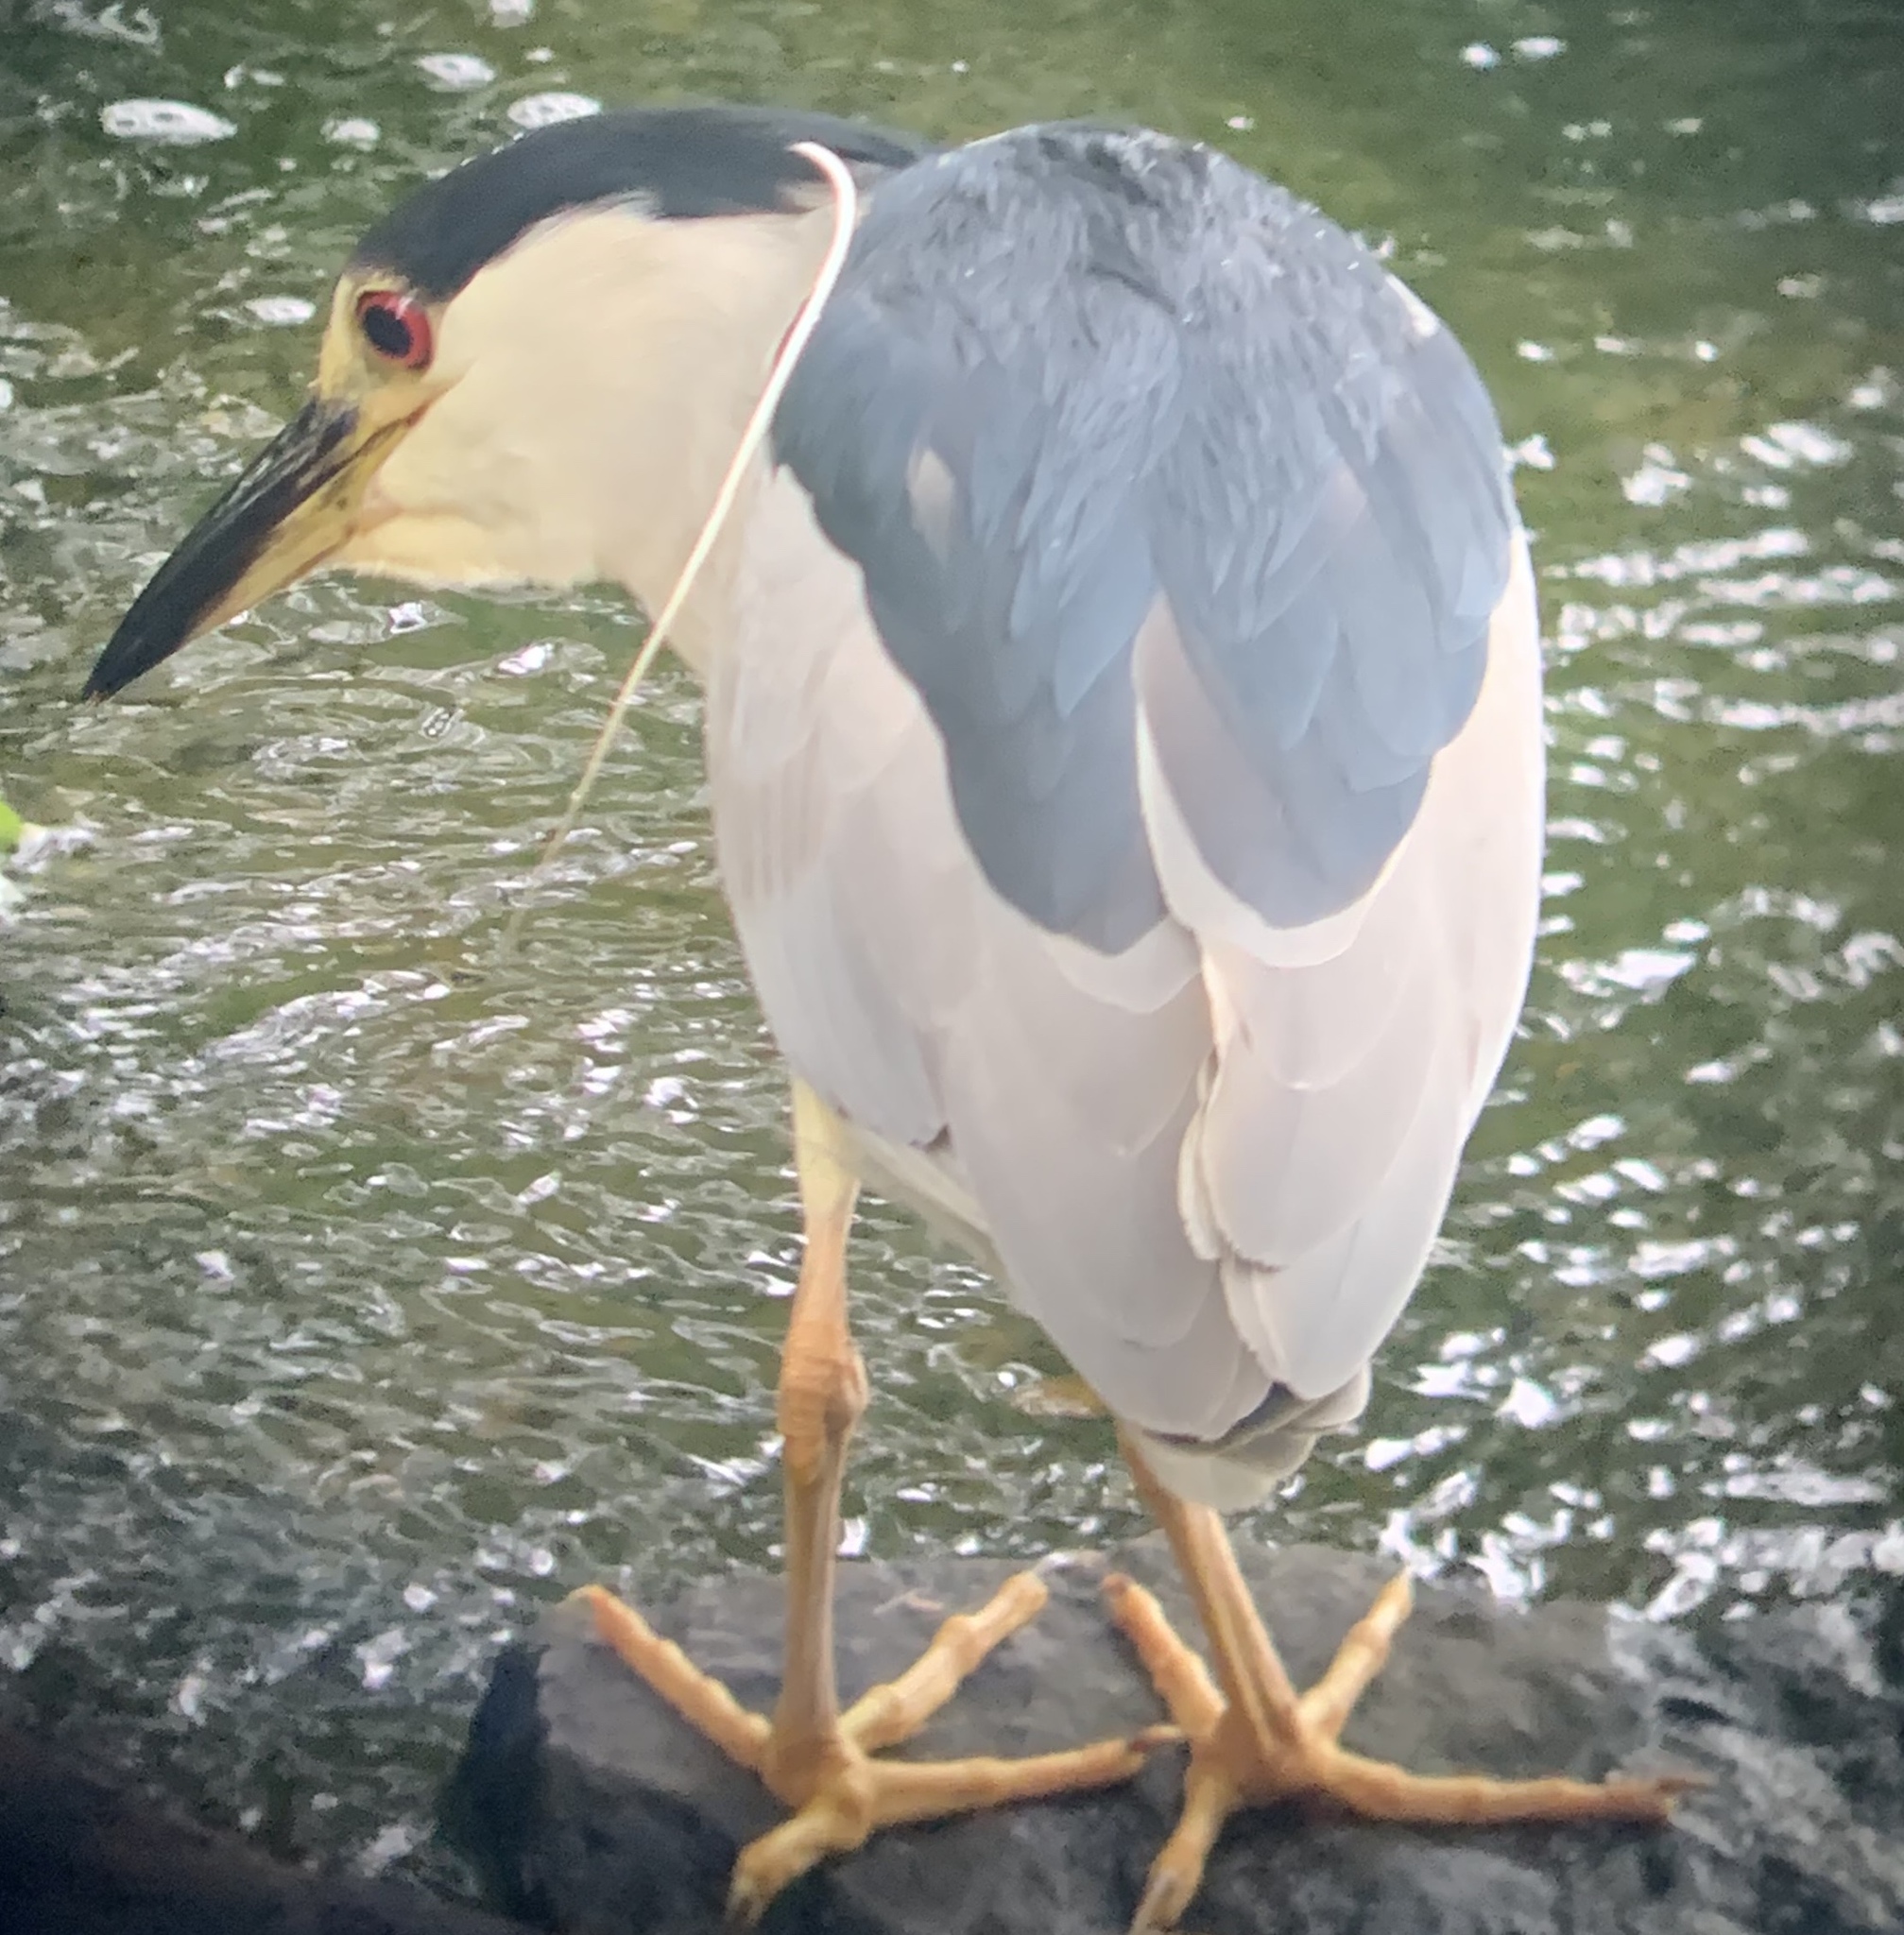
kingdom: Animalia
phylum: Chordata
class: Aves
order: Pelecaniformes
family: Ardeidae
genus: Nycticorax
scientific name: Nycticorax nycticorax
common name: Black-crowned night heron
